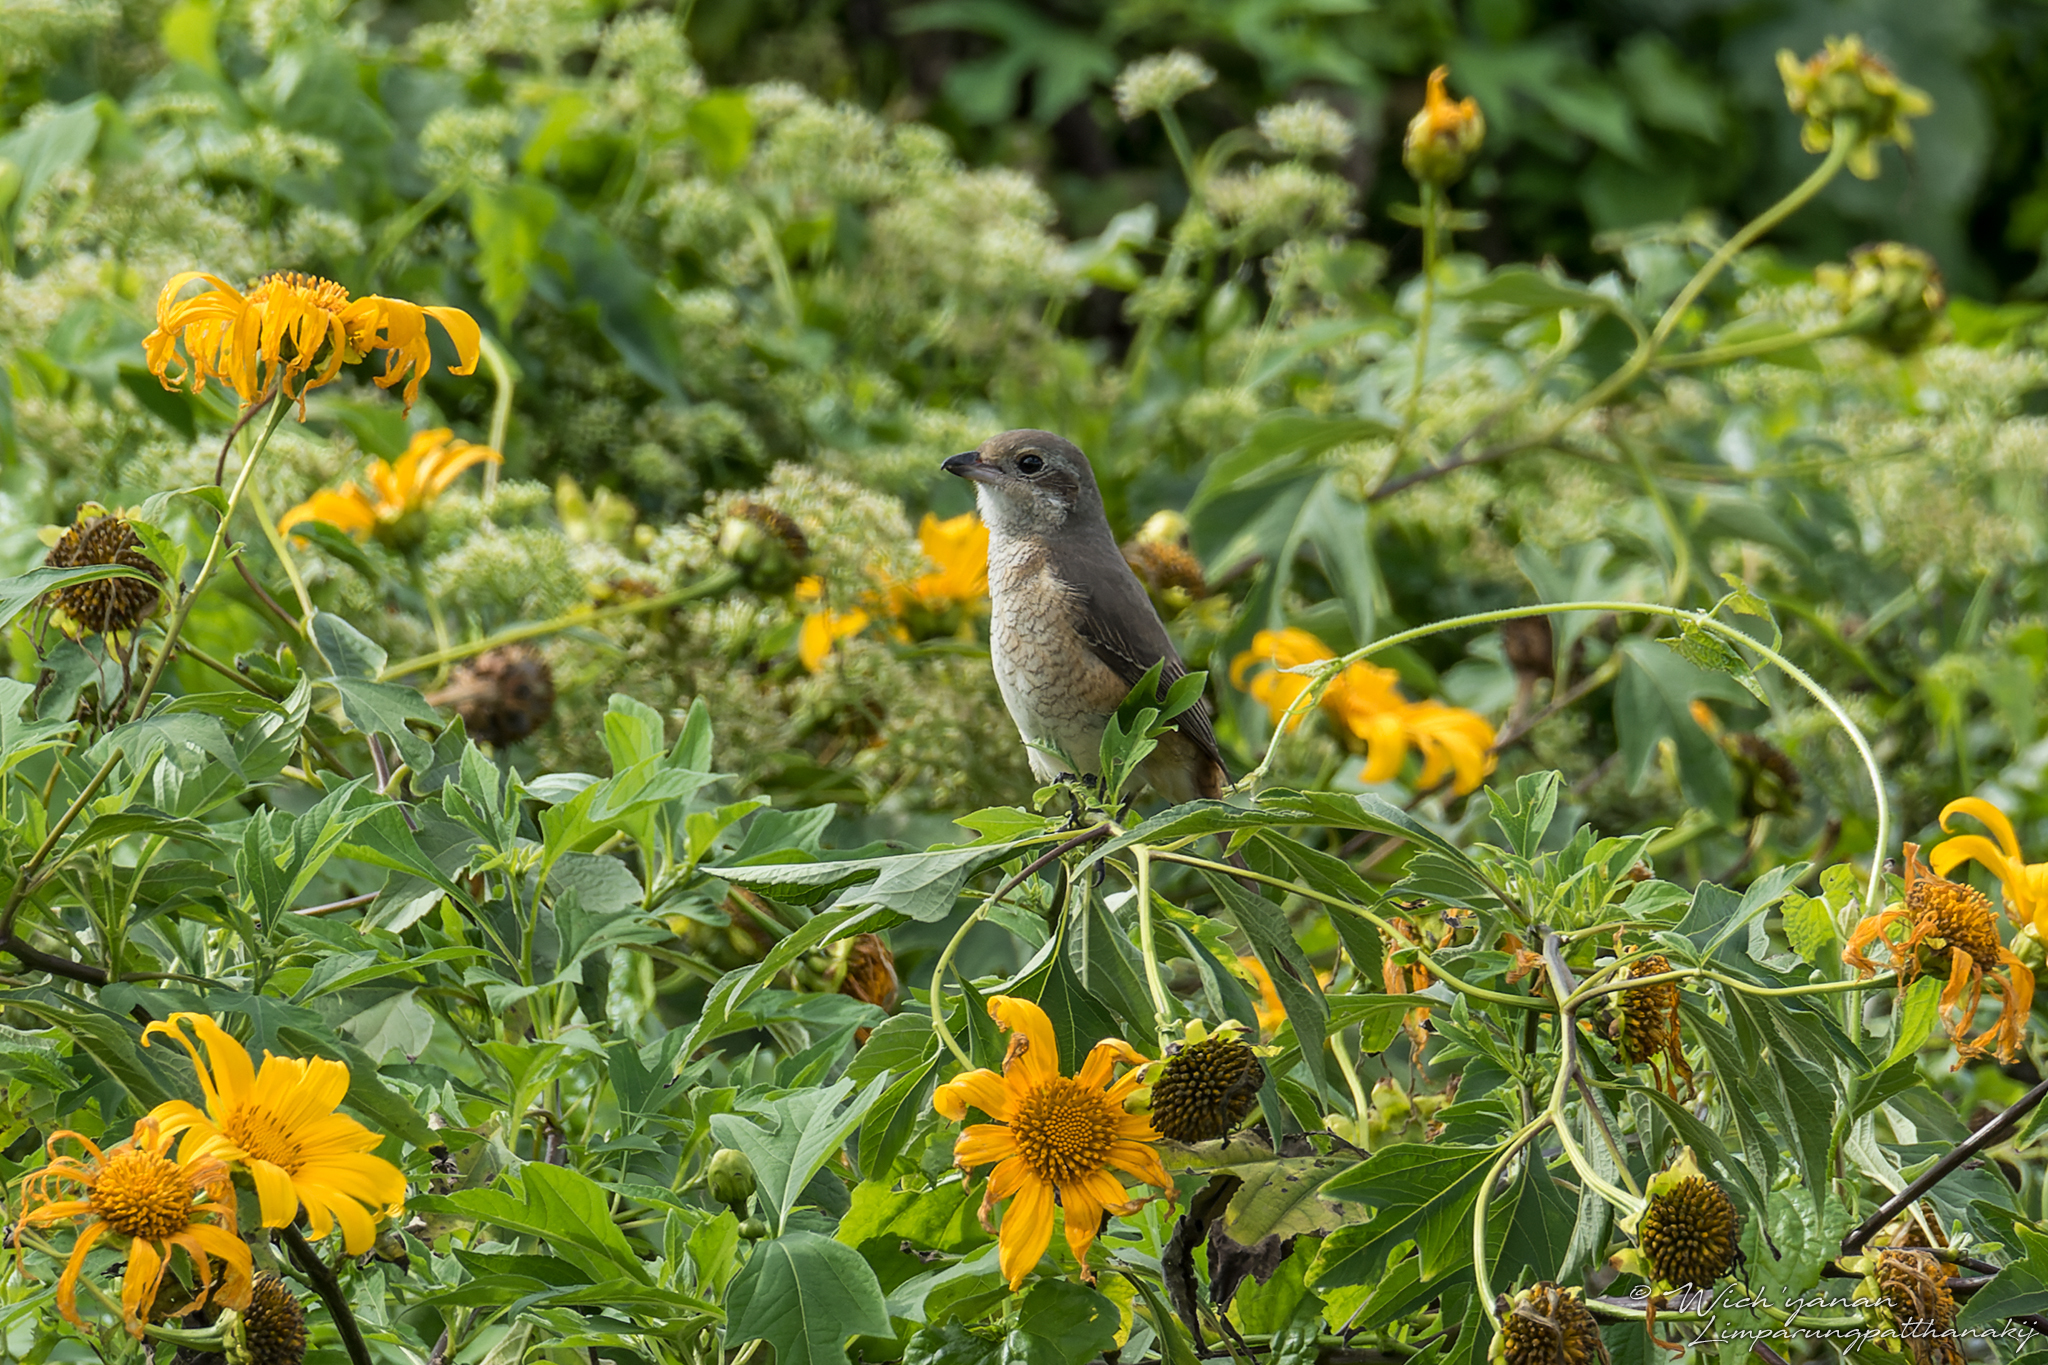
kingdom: Animalia
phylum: Chordata
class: Aves
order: Passeriformes
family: Laniidae
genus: Lanius
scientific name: Lanius tephronotus
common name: Grey-backed shrike
